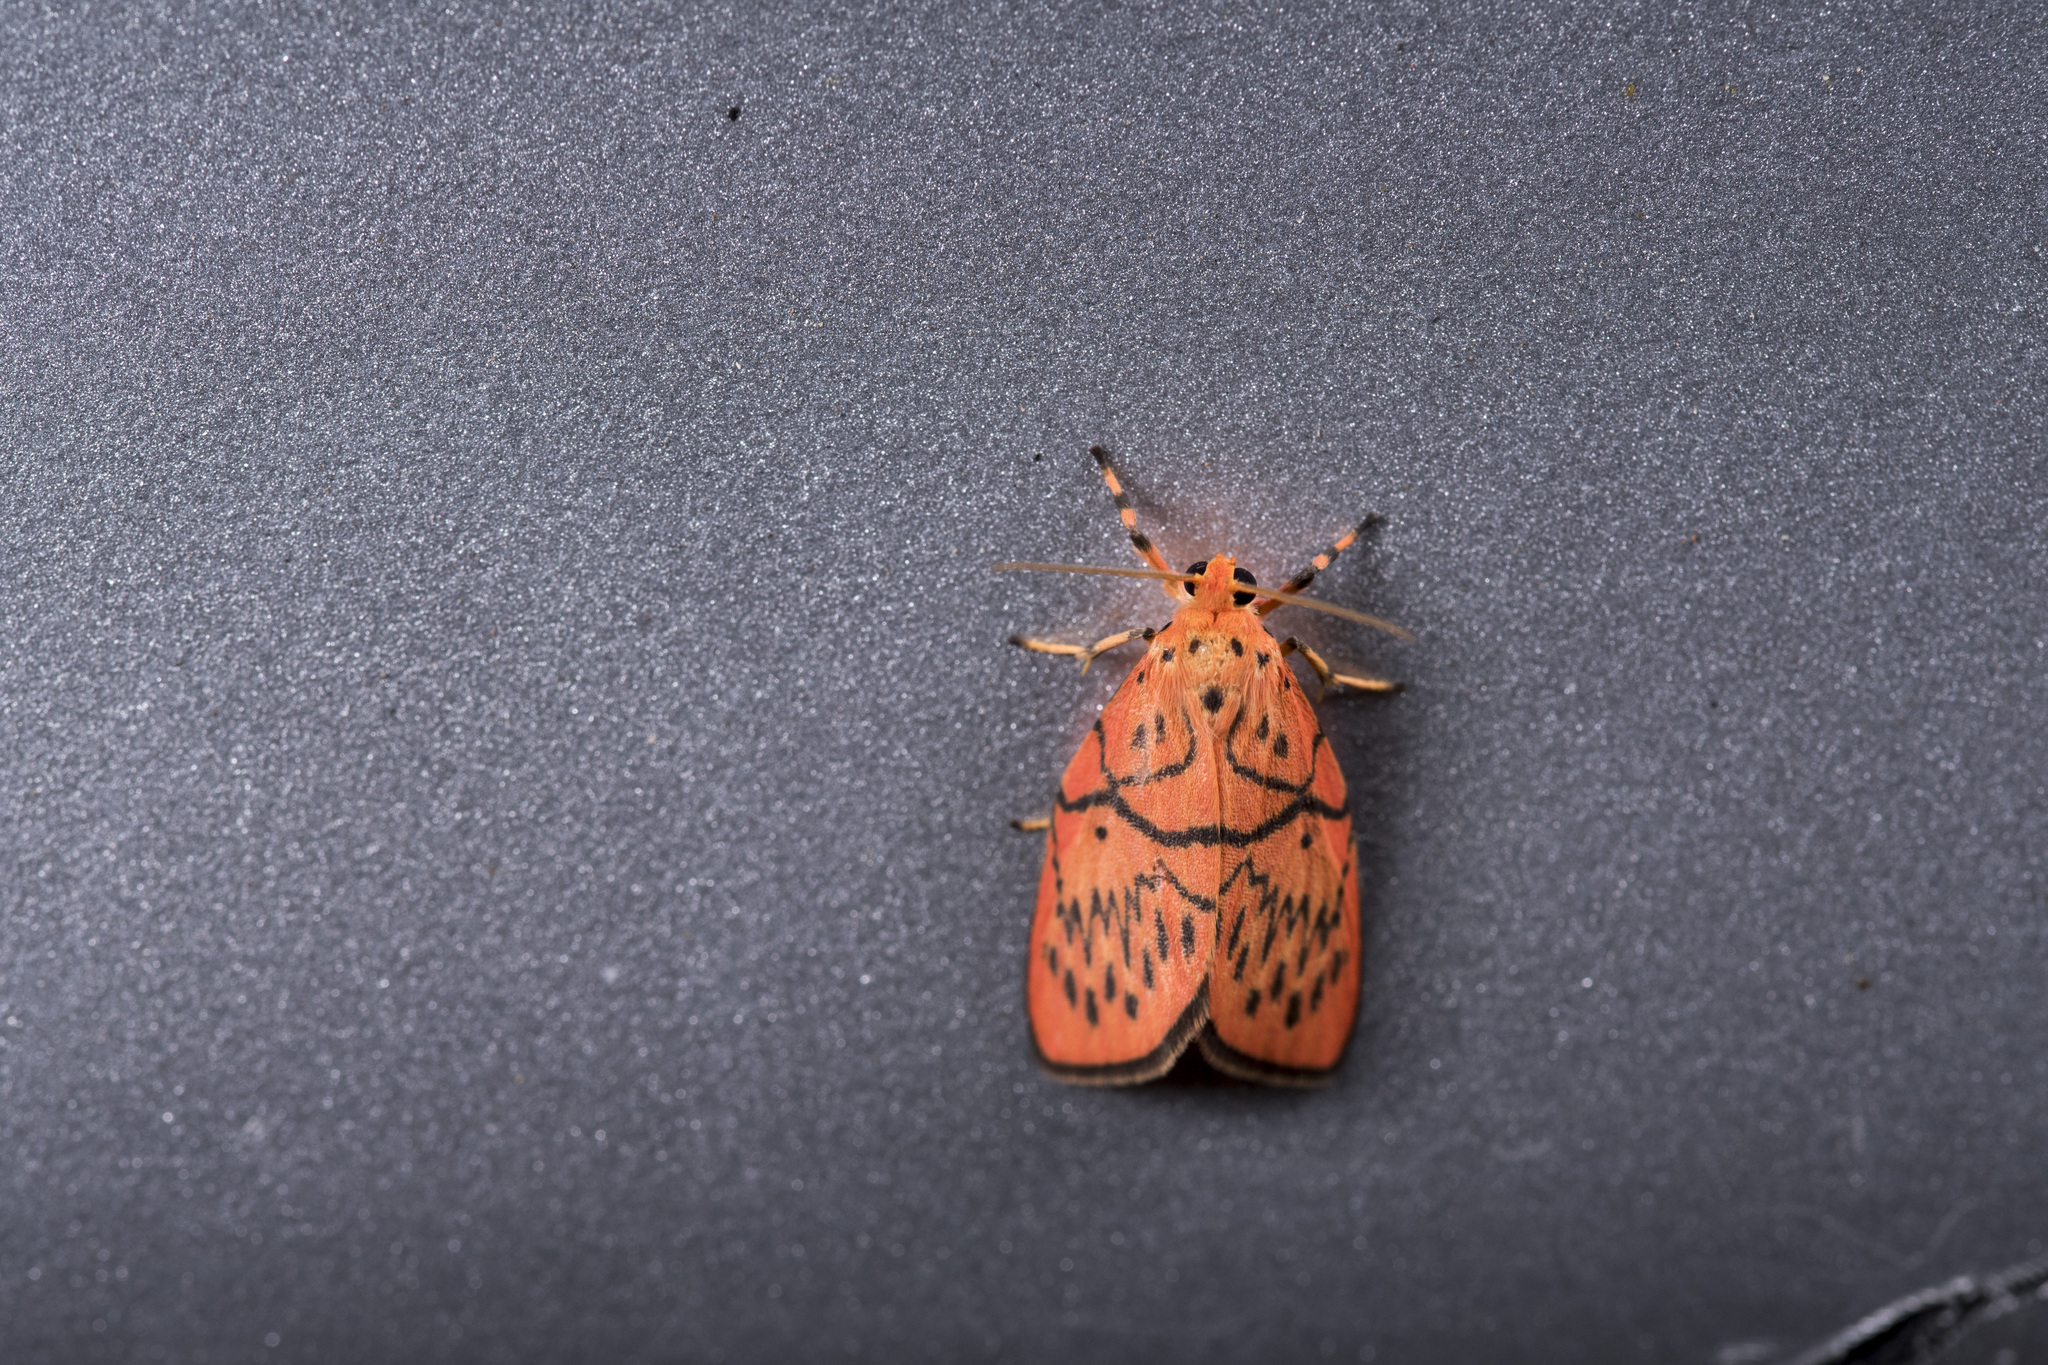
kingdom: Animalia
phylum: Arthropoda
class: Insecta
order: Lepidoptera
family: Erebidae
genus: Aberrasine
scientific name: Aberrasine lichenshihi
